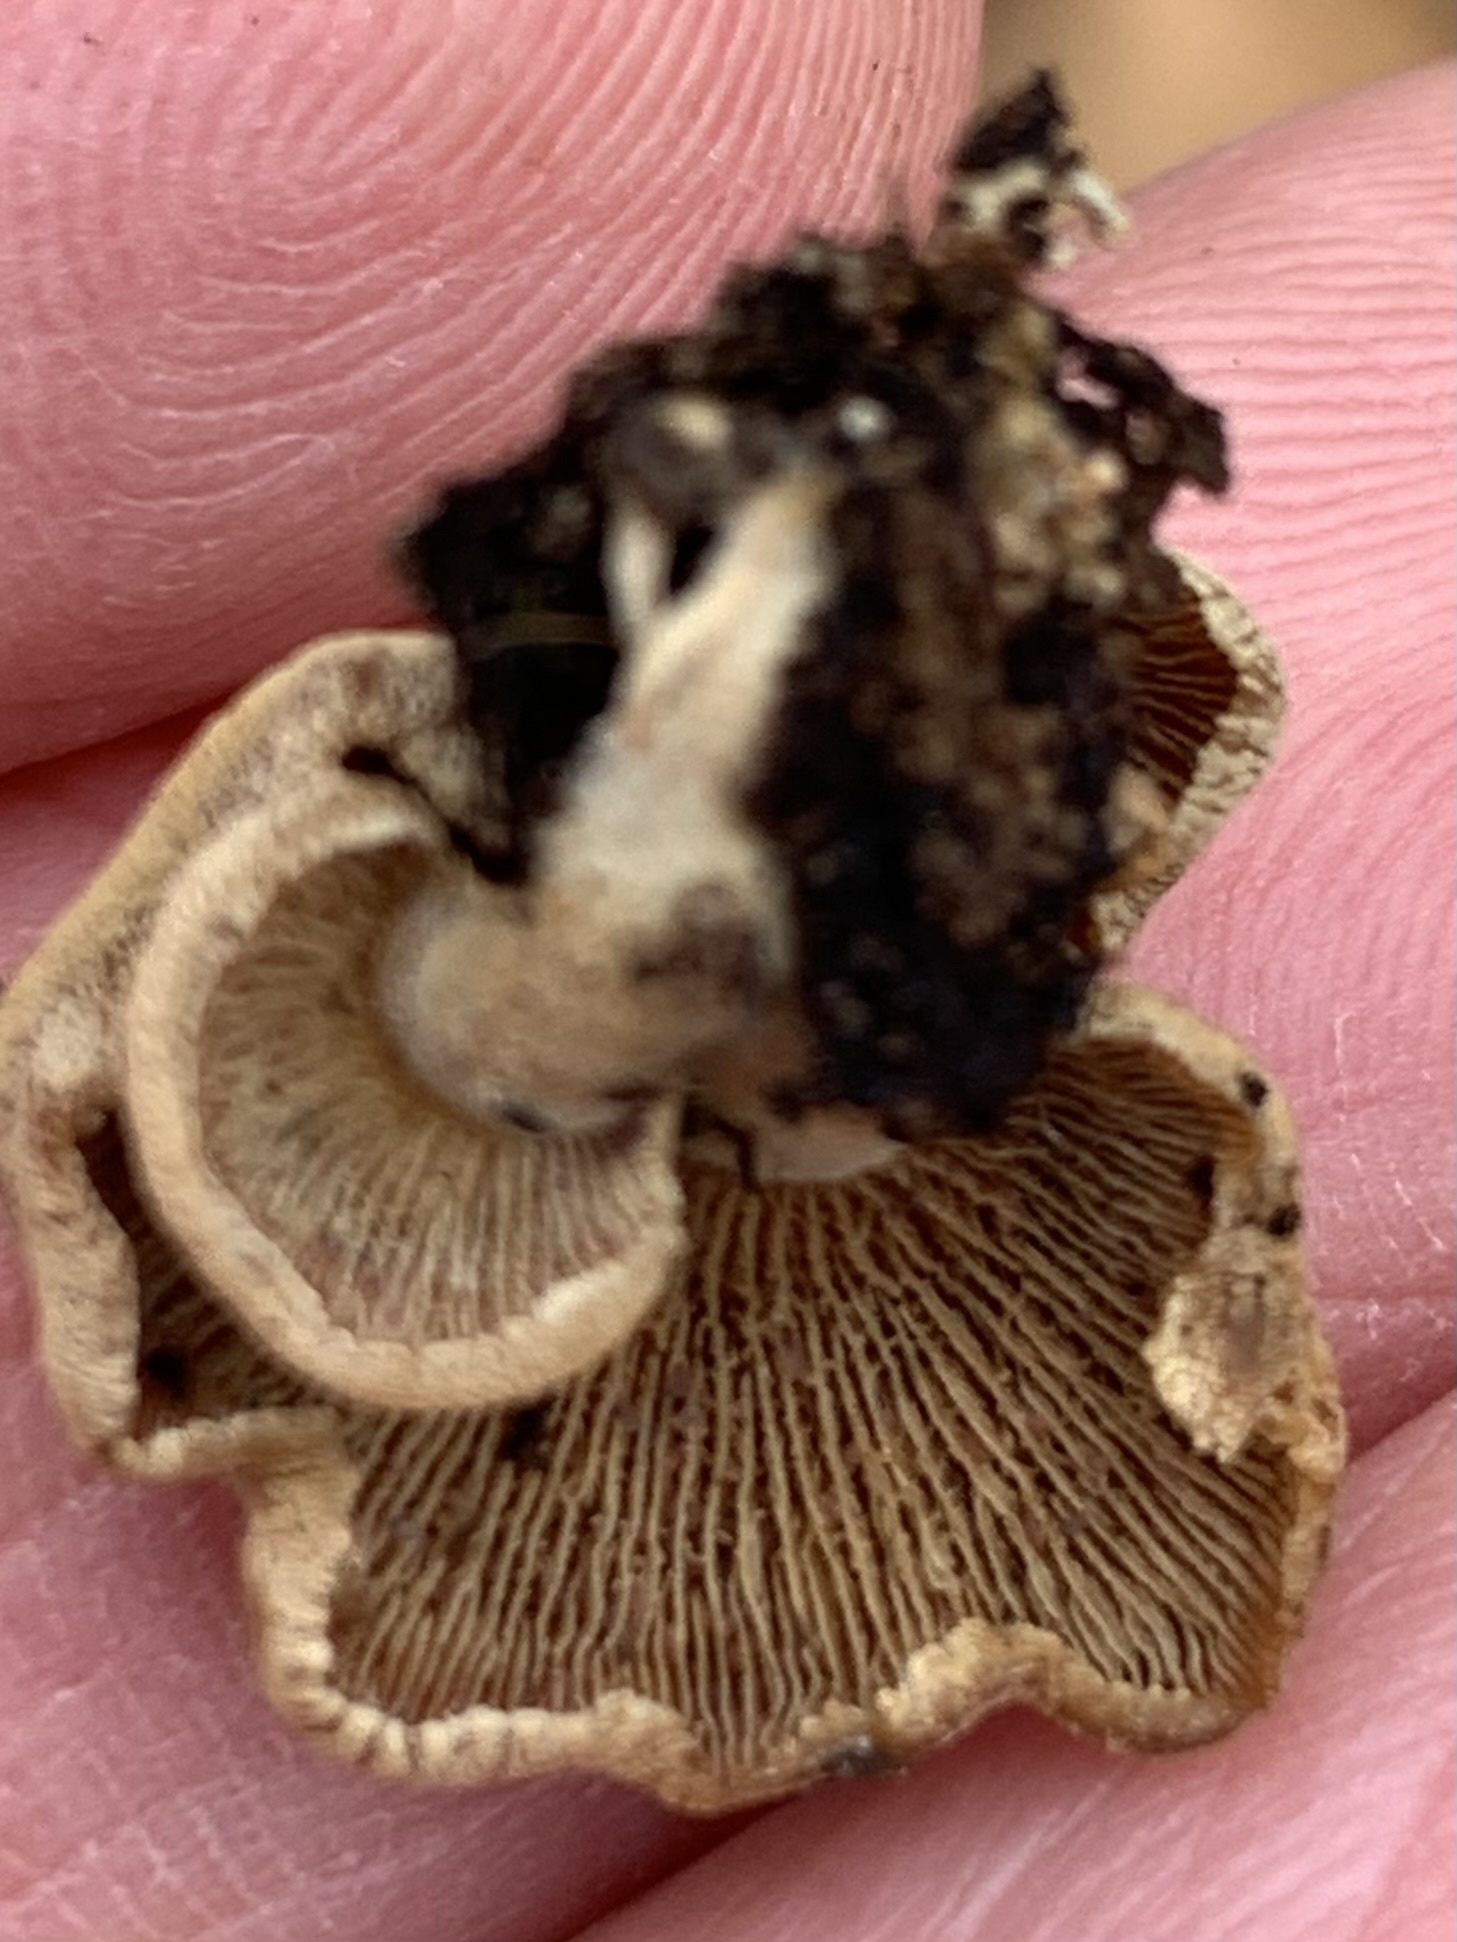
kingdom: Fungi
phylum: Basidiomycota
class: Agaricomycetes
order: Agaricales
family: Mycenaceae
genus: Panellus
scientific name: Panellus stipticus
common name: Bitter oysterling
